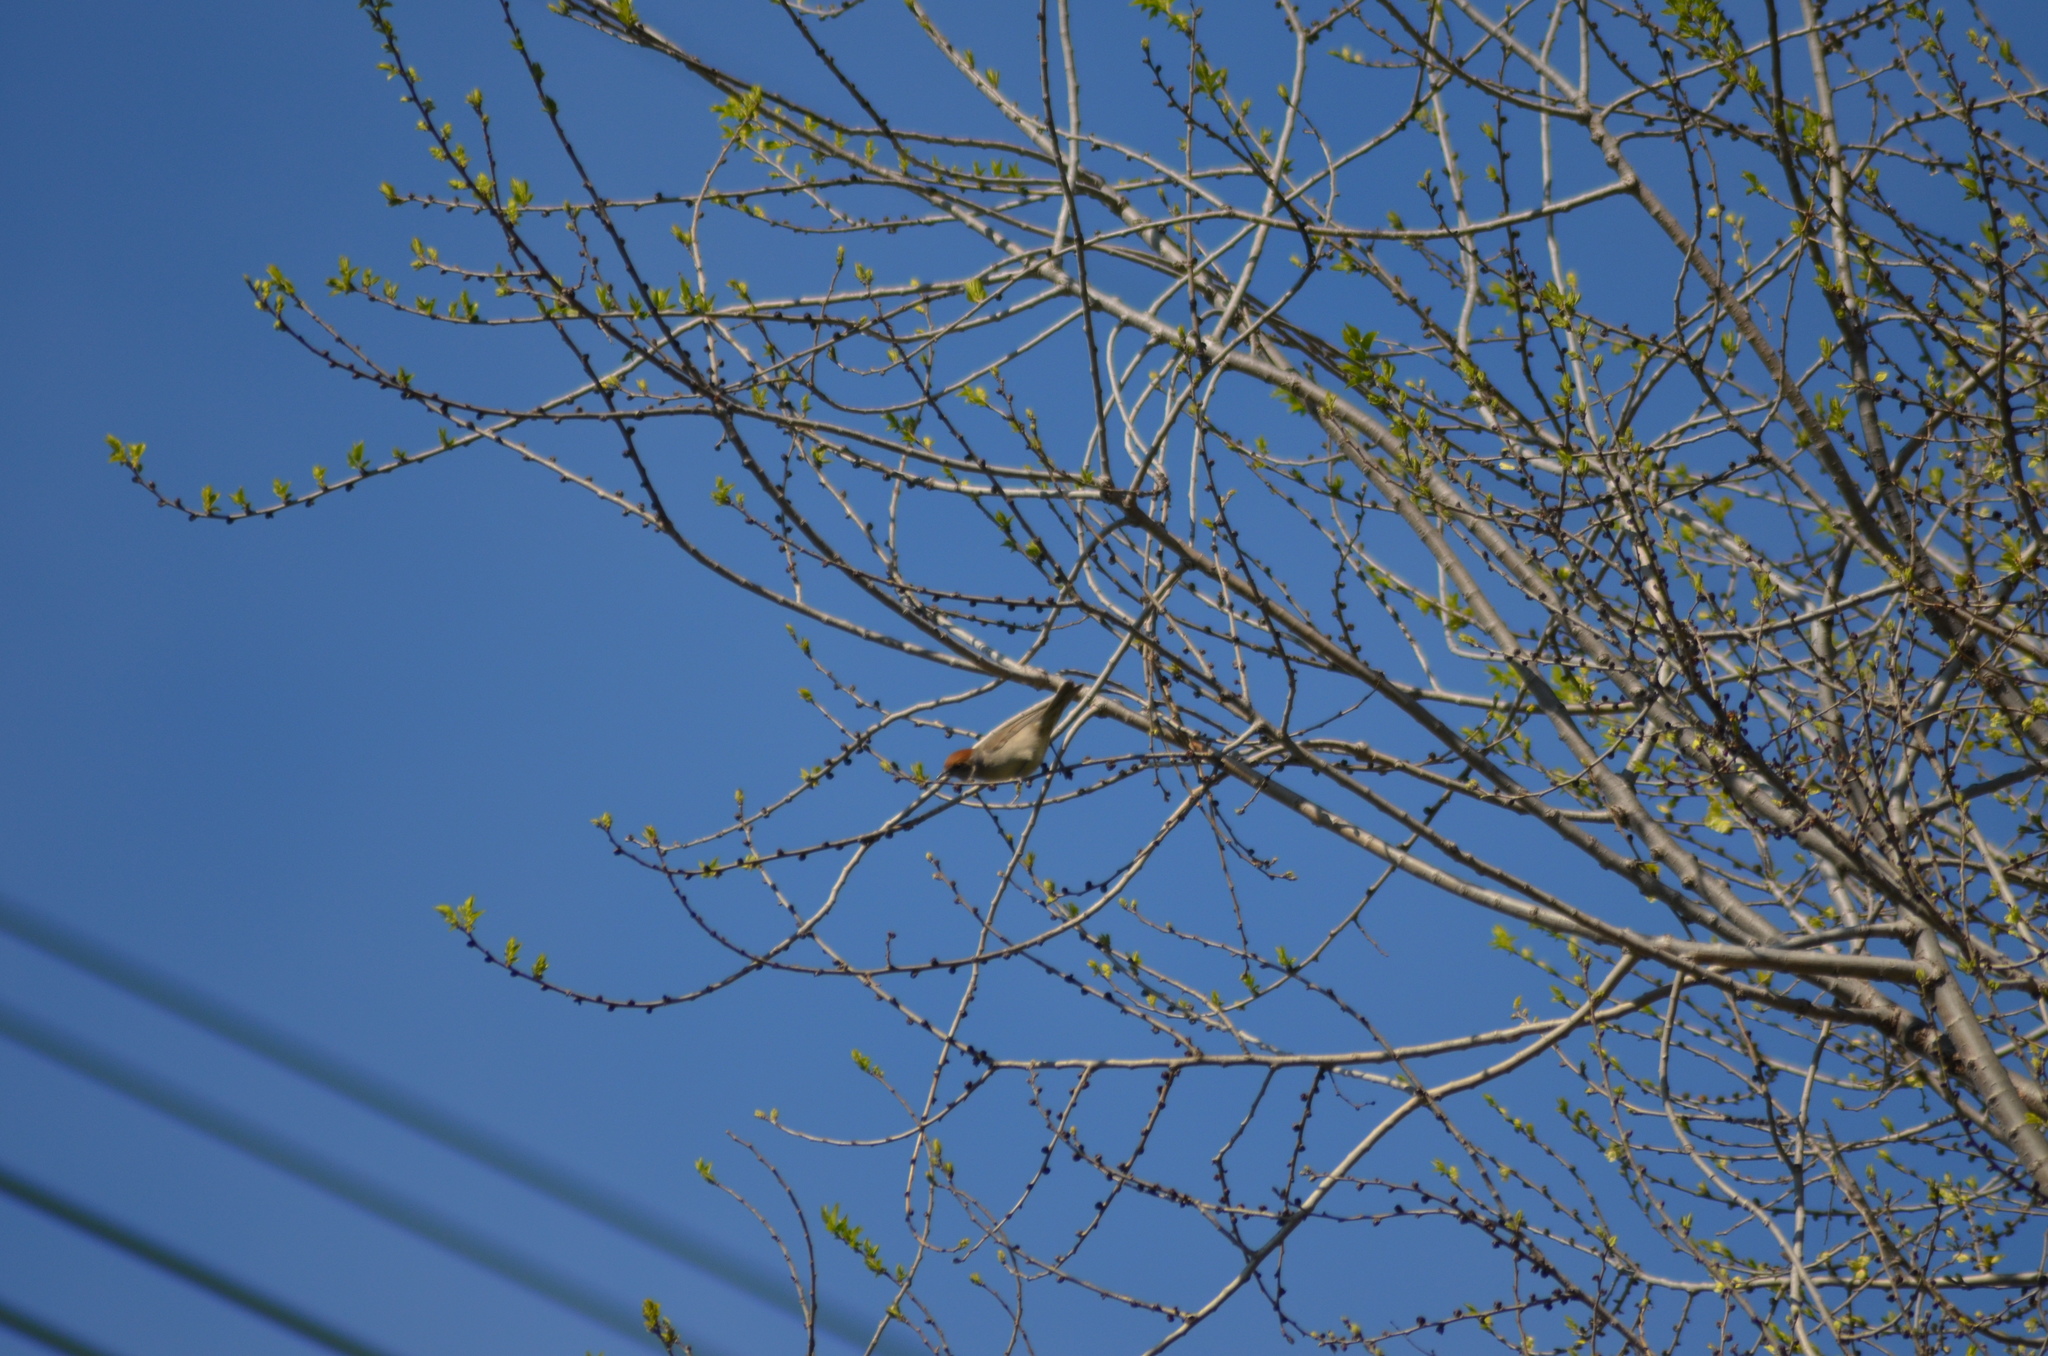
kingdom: Animalia
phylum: Chordata
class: Aves
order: Passeriformes
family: Sylviidae
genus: Sylvia
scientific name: Sylvia atricapilla
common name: Eurasian blackcap
